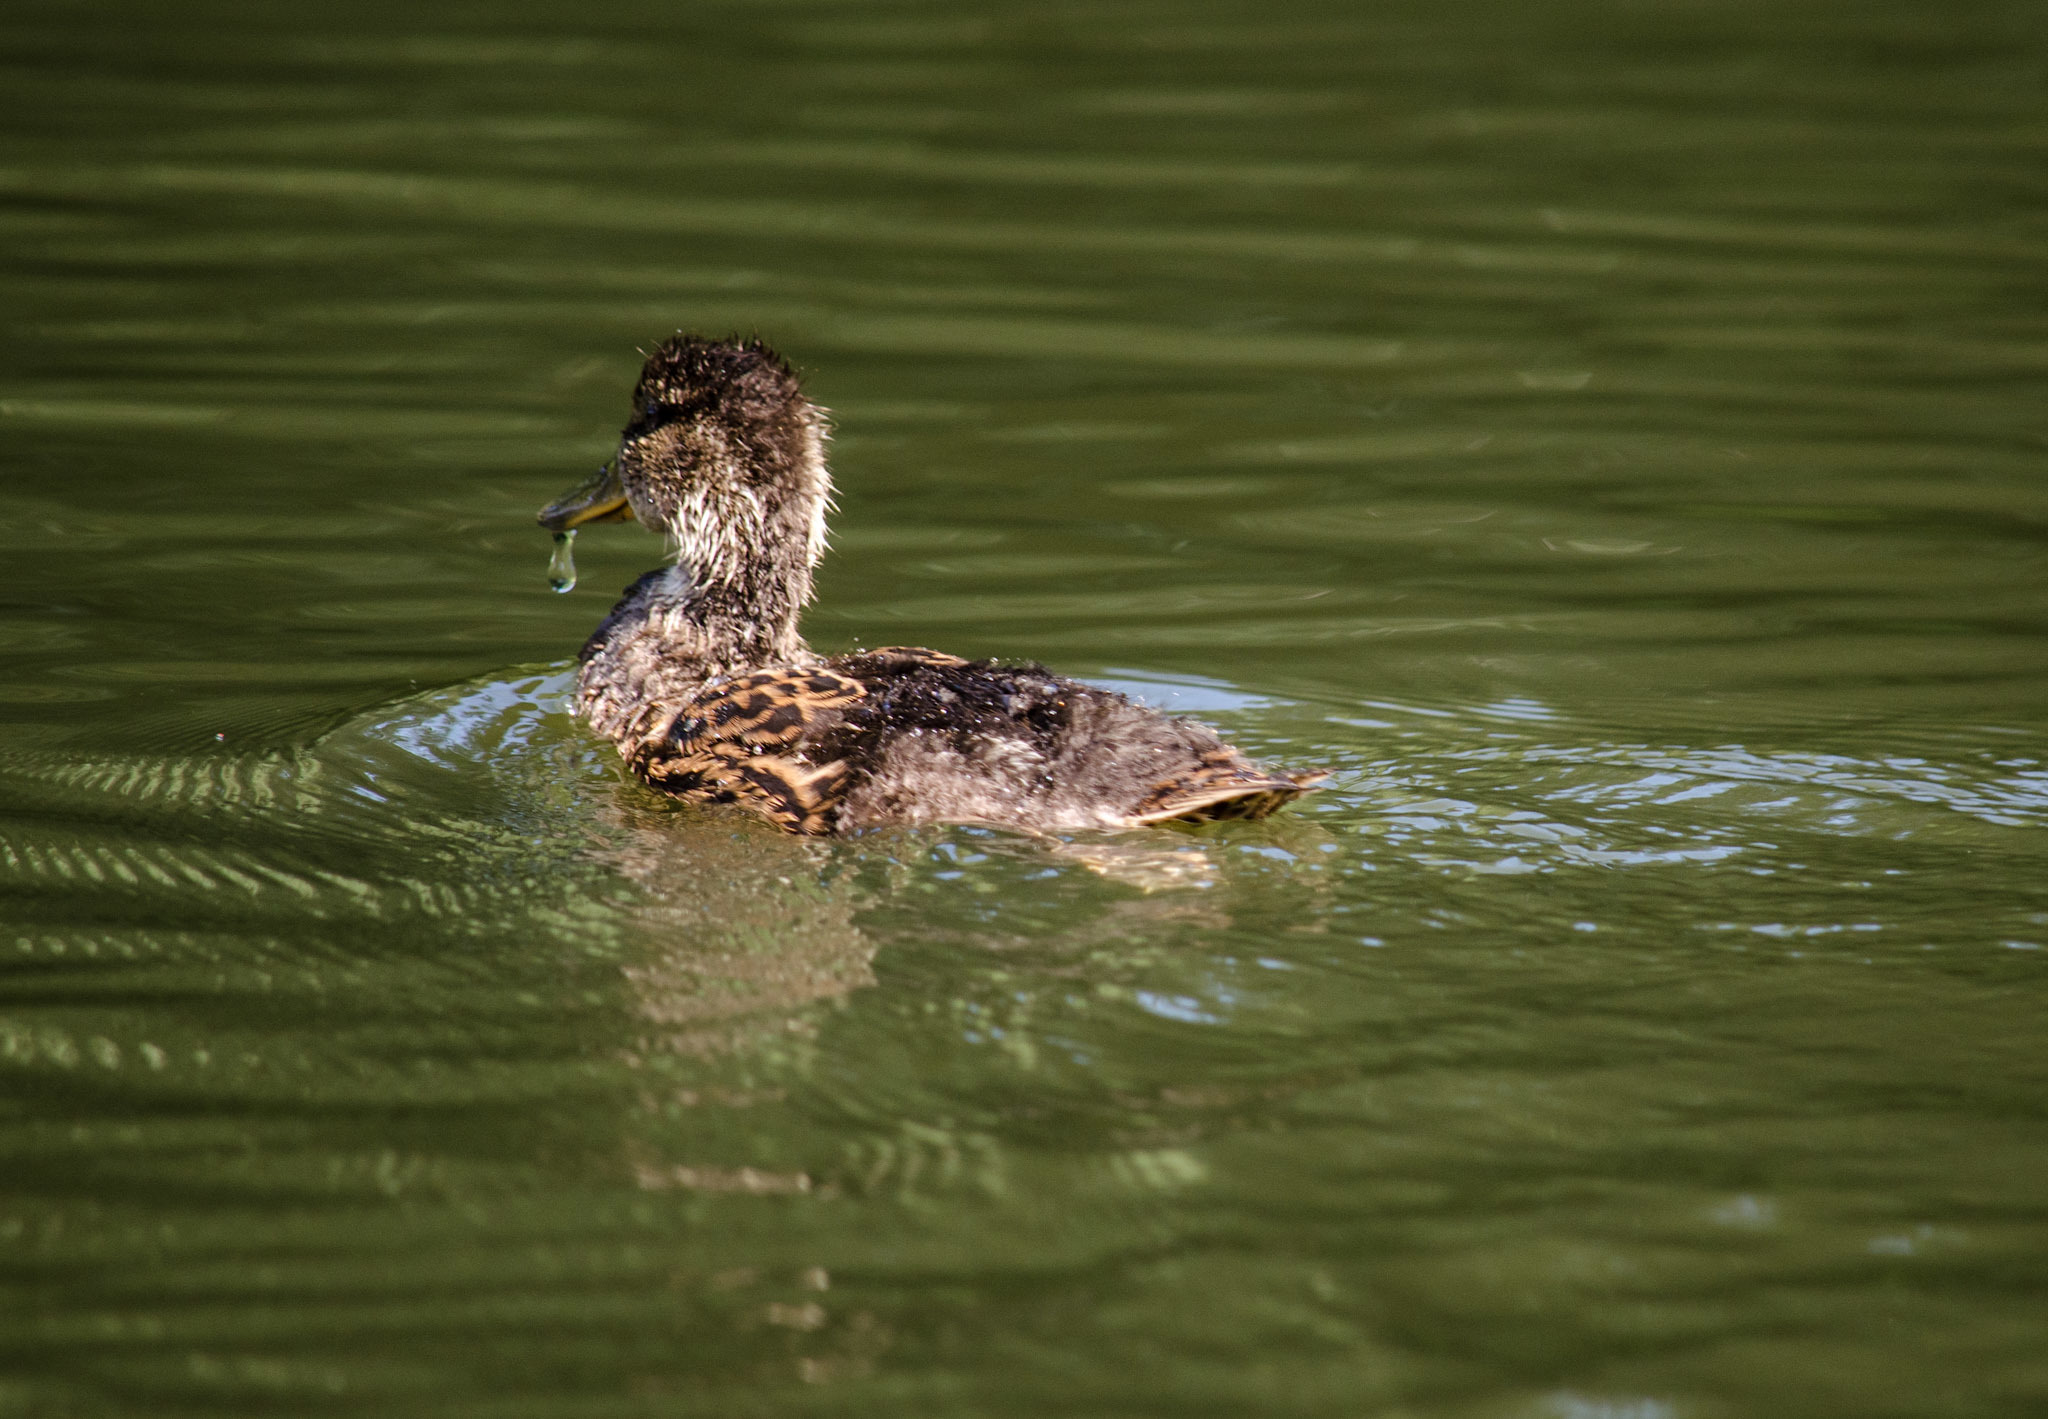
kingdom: Animalia
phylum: Chordata
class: Aves
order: Anseriformes
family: Anatidae
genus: Anas
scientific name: Anas platyrhynchos
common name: Mallard
